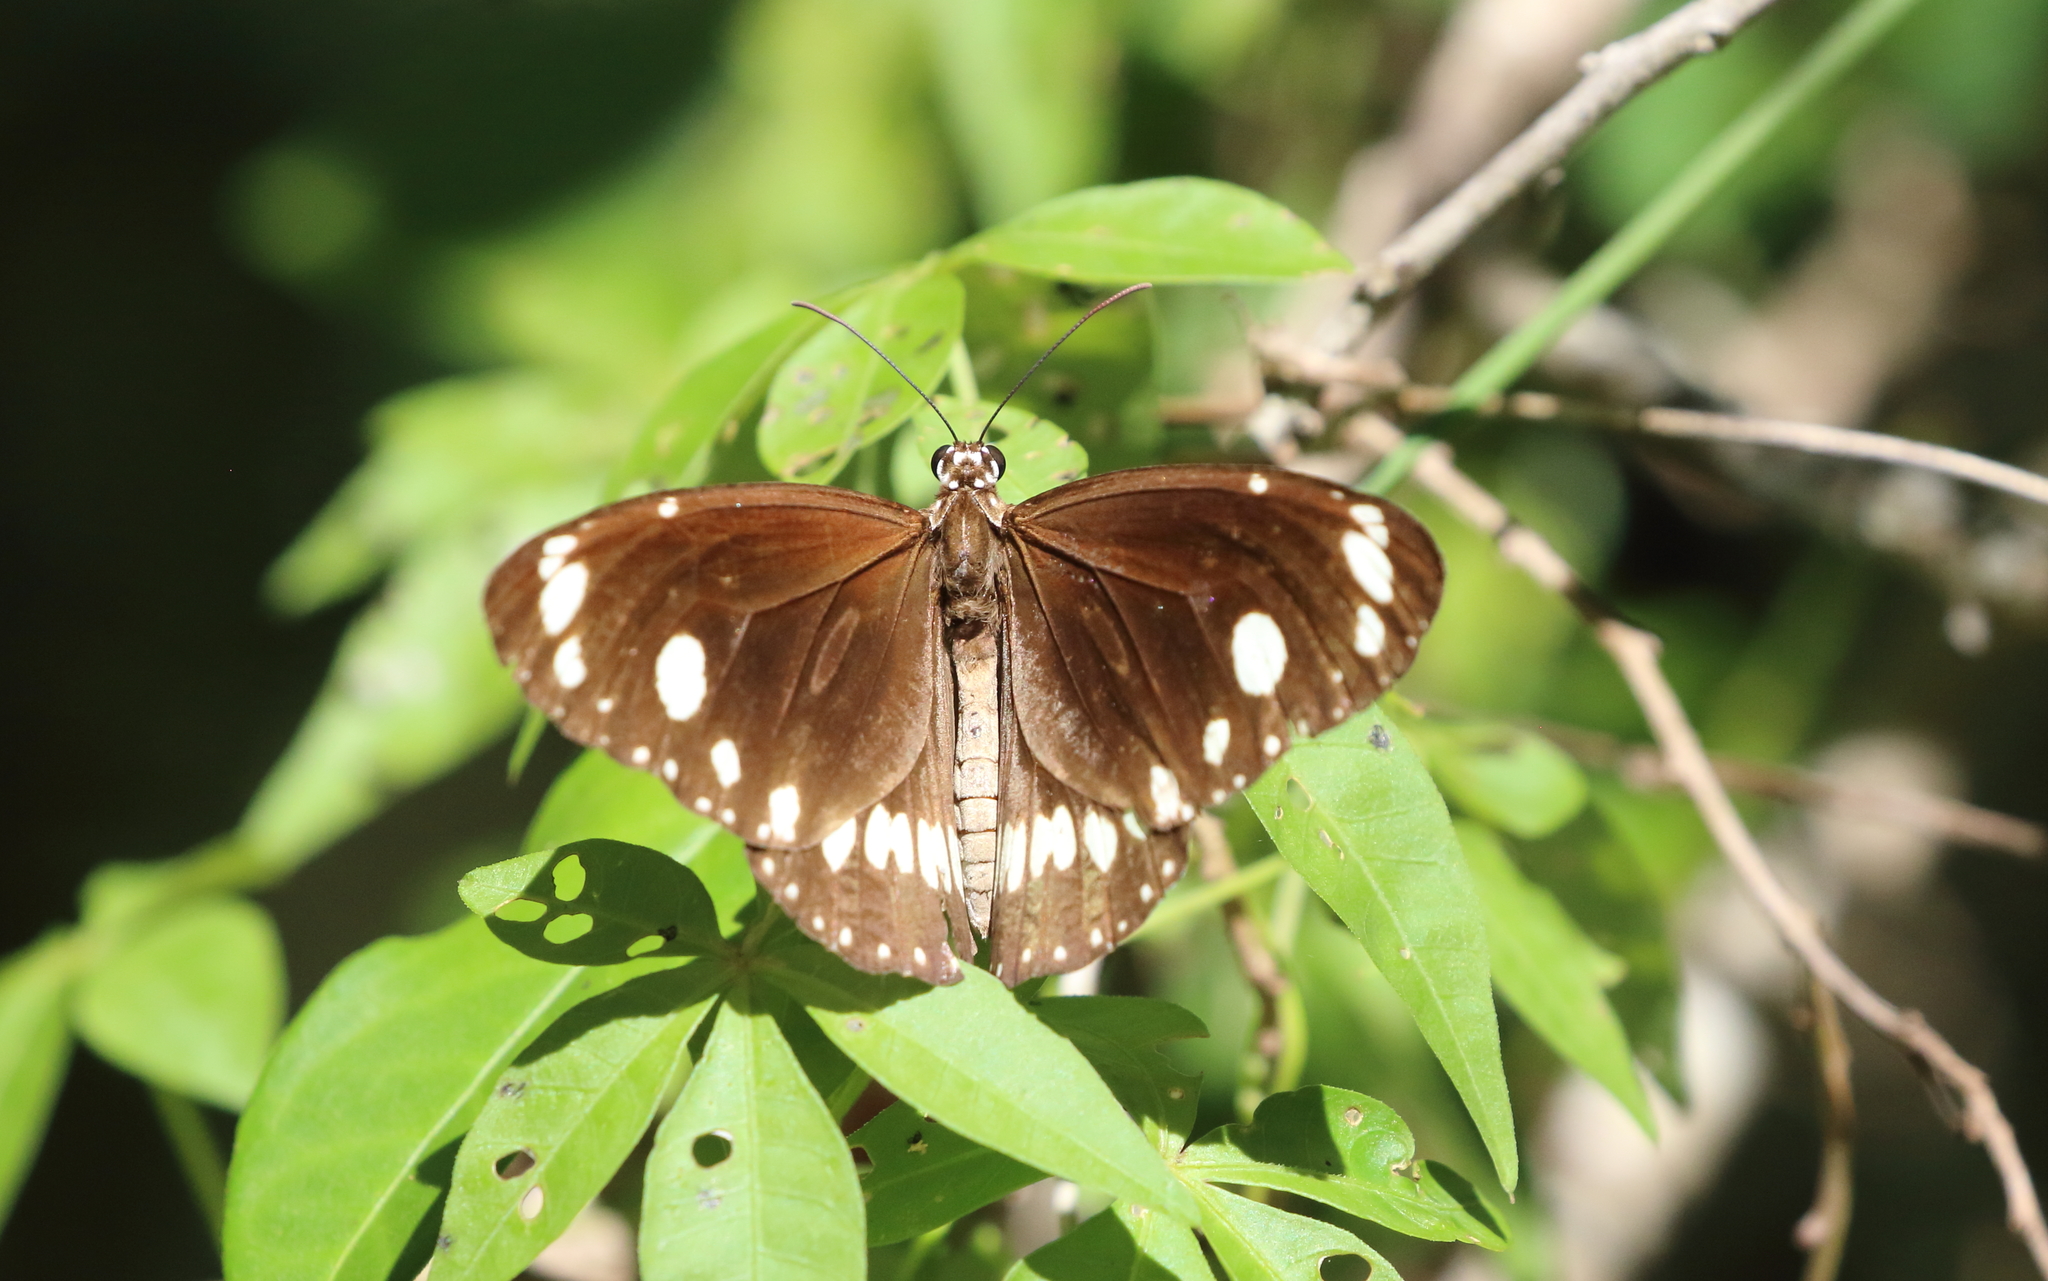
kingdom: Animalia
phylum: Arthropoda
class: Insecta
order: Lepidoptera
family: Nymphalidae
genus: Euploea
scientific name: Euploea core
